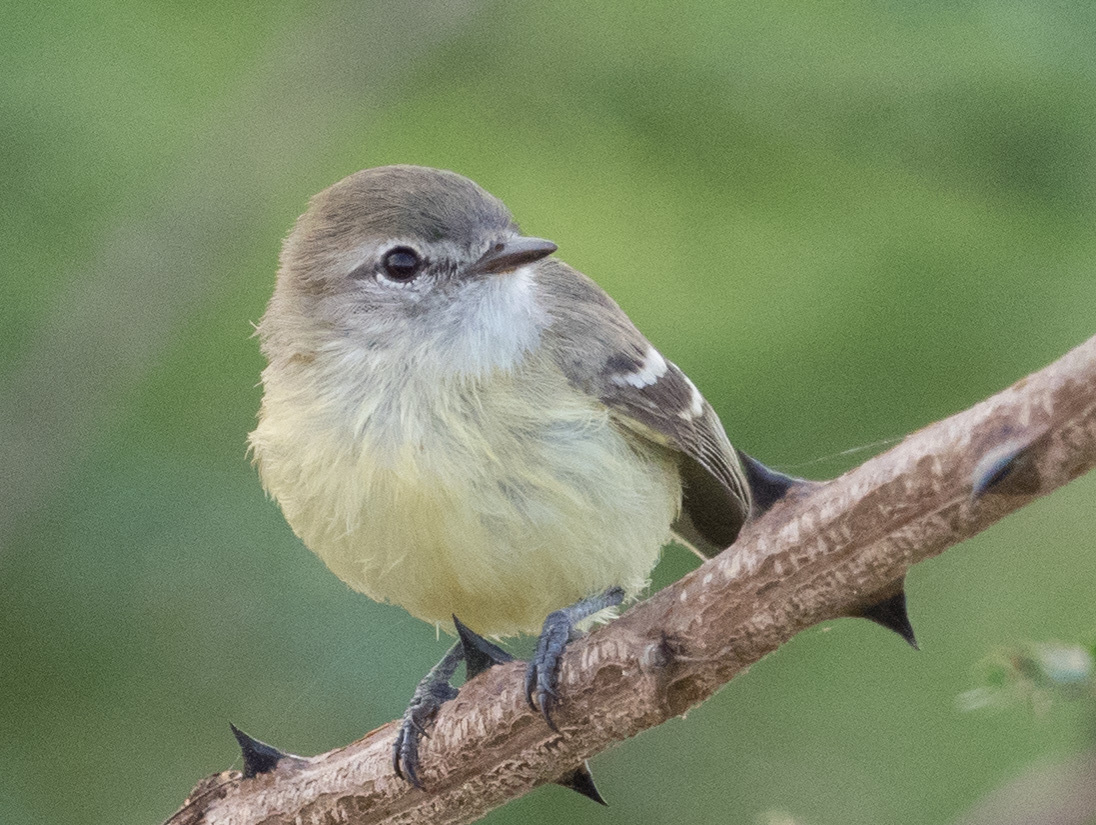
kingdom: Animalia
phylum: Chordata
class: Aves
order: Passeriformes
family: Tyrannidae
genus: Inezia
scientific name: Inezia tenuirostris
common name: Slender-billed inezia
